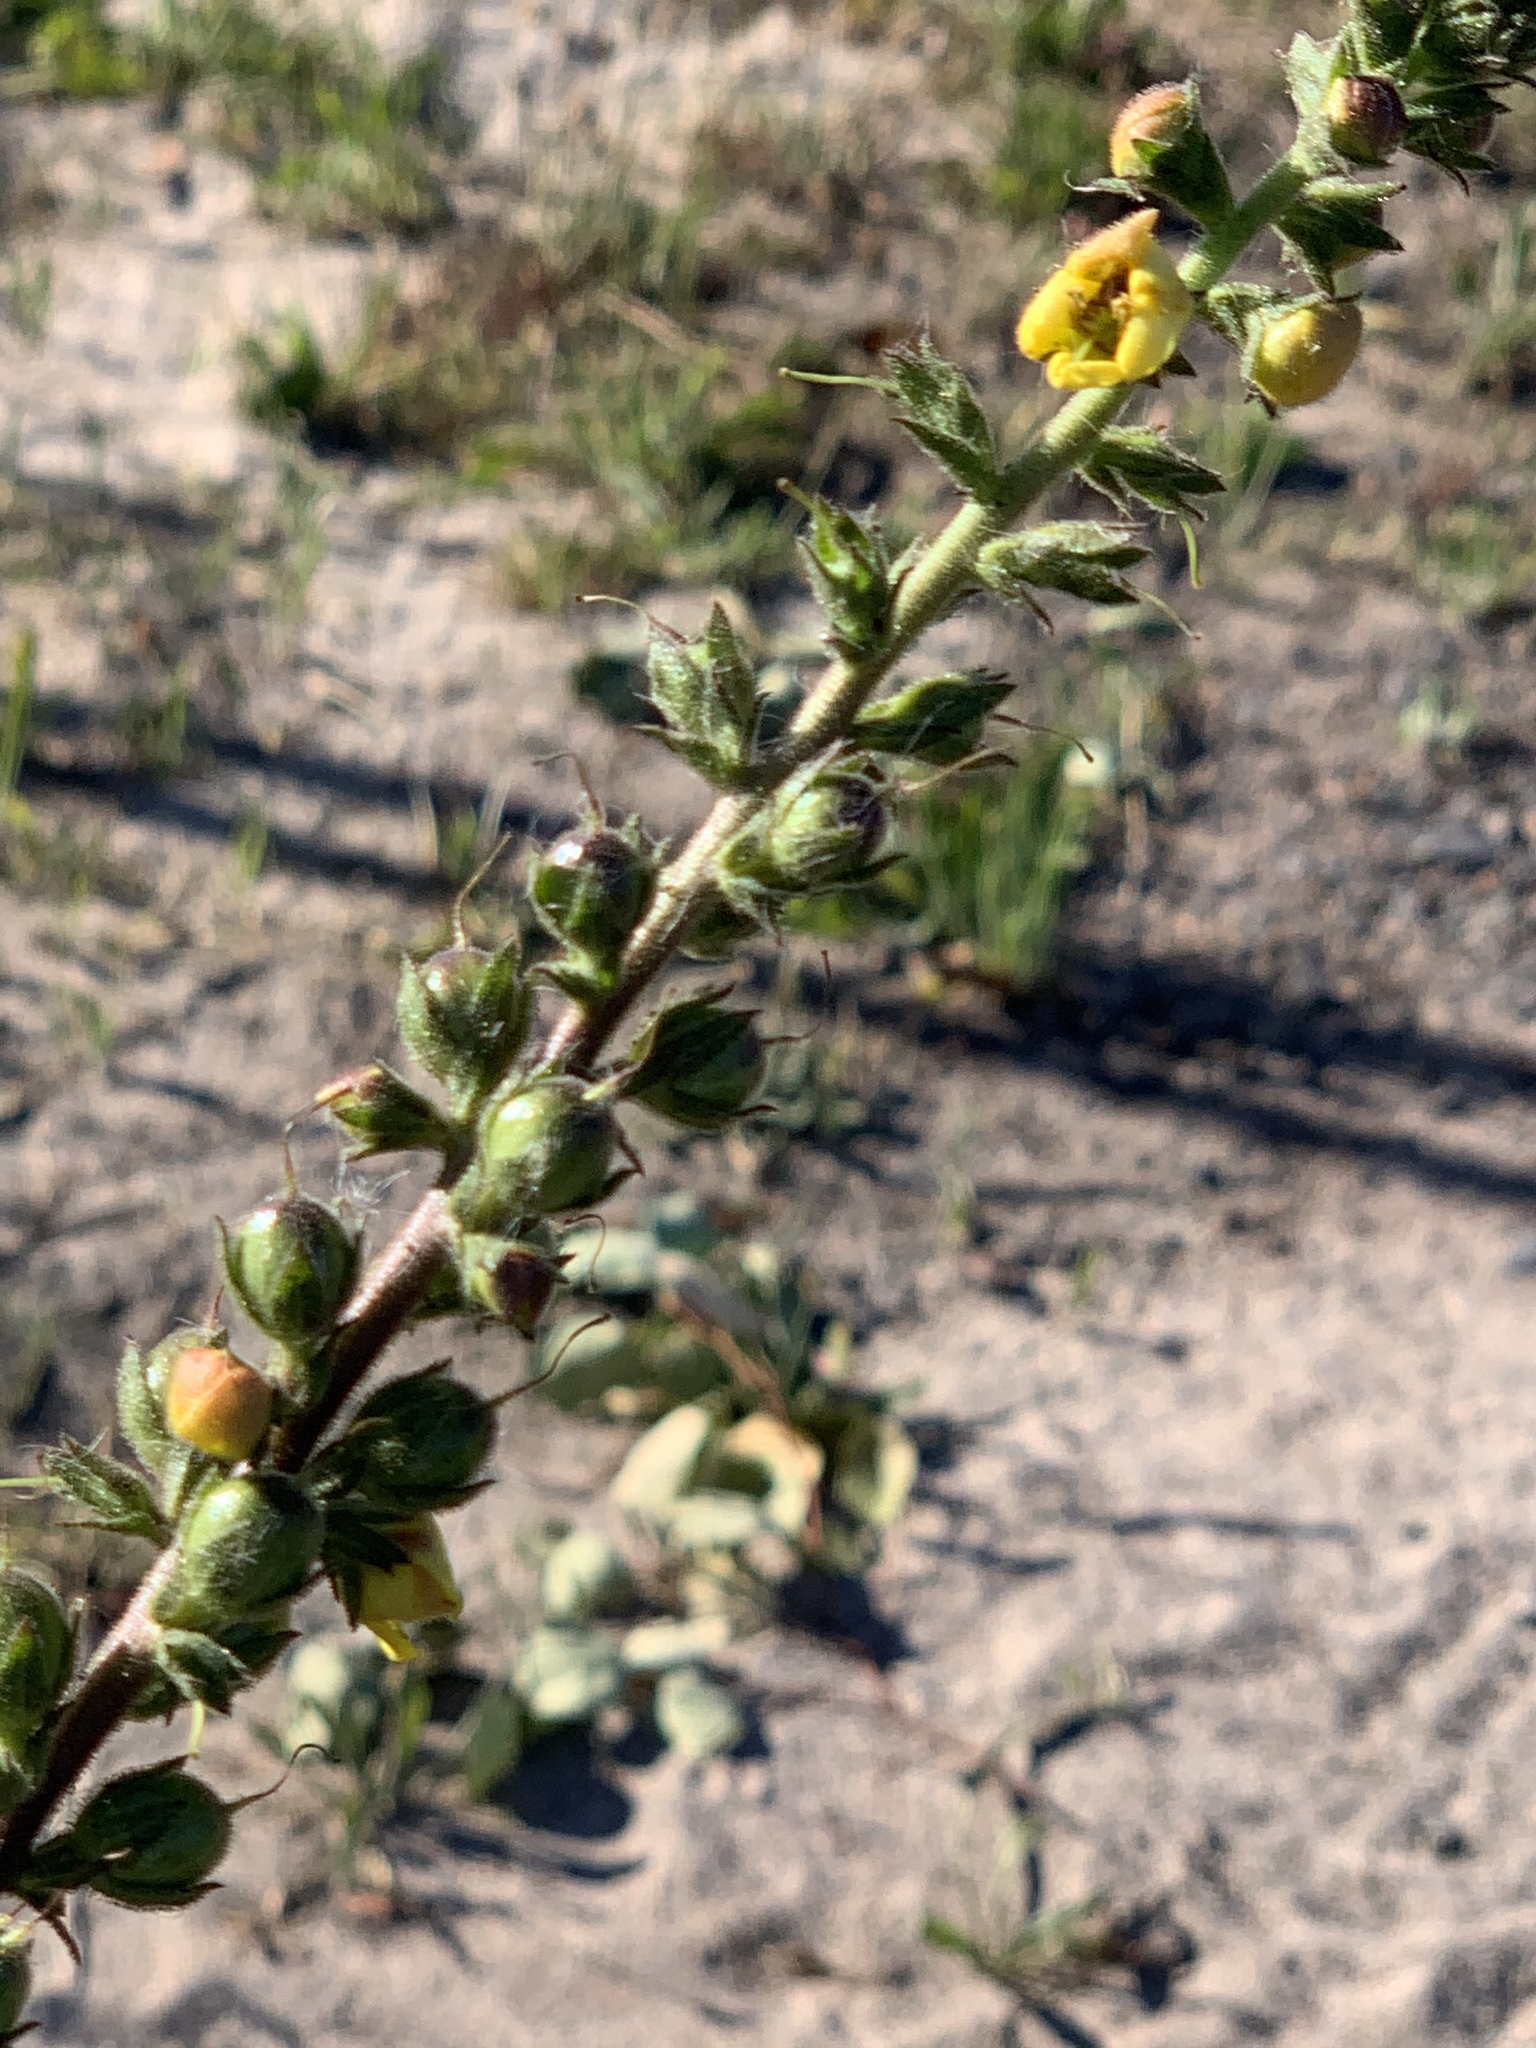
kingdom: Plantae
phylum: Tracheophyta
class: Magnoliopsida
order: Lamiales
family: Scrophulariaceae
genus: Verbascum
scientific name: Verbascum virgatum
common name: Twiggy mullein
